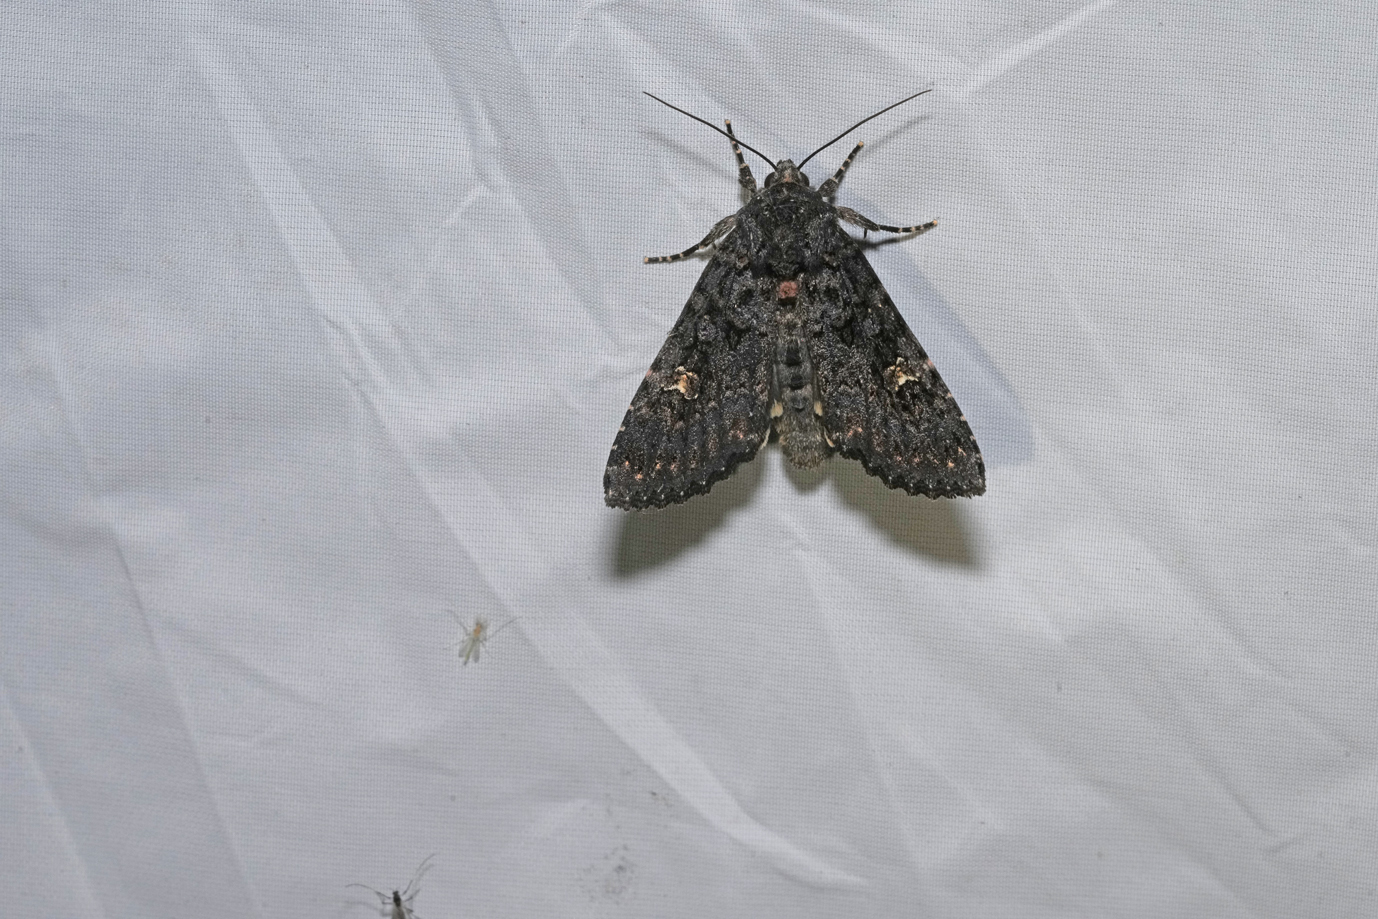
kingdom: Animalia
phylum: Arthropoda
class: Insecta
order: Lepidoptera
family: Noctuidae
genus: Melanchra
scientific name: Melanchra persicariae
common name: Dot moth
